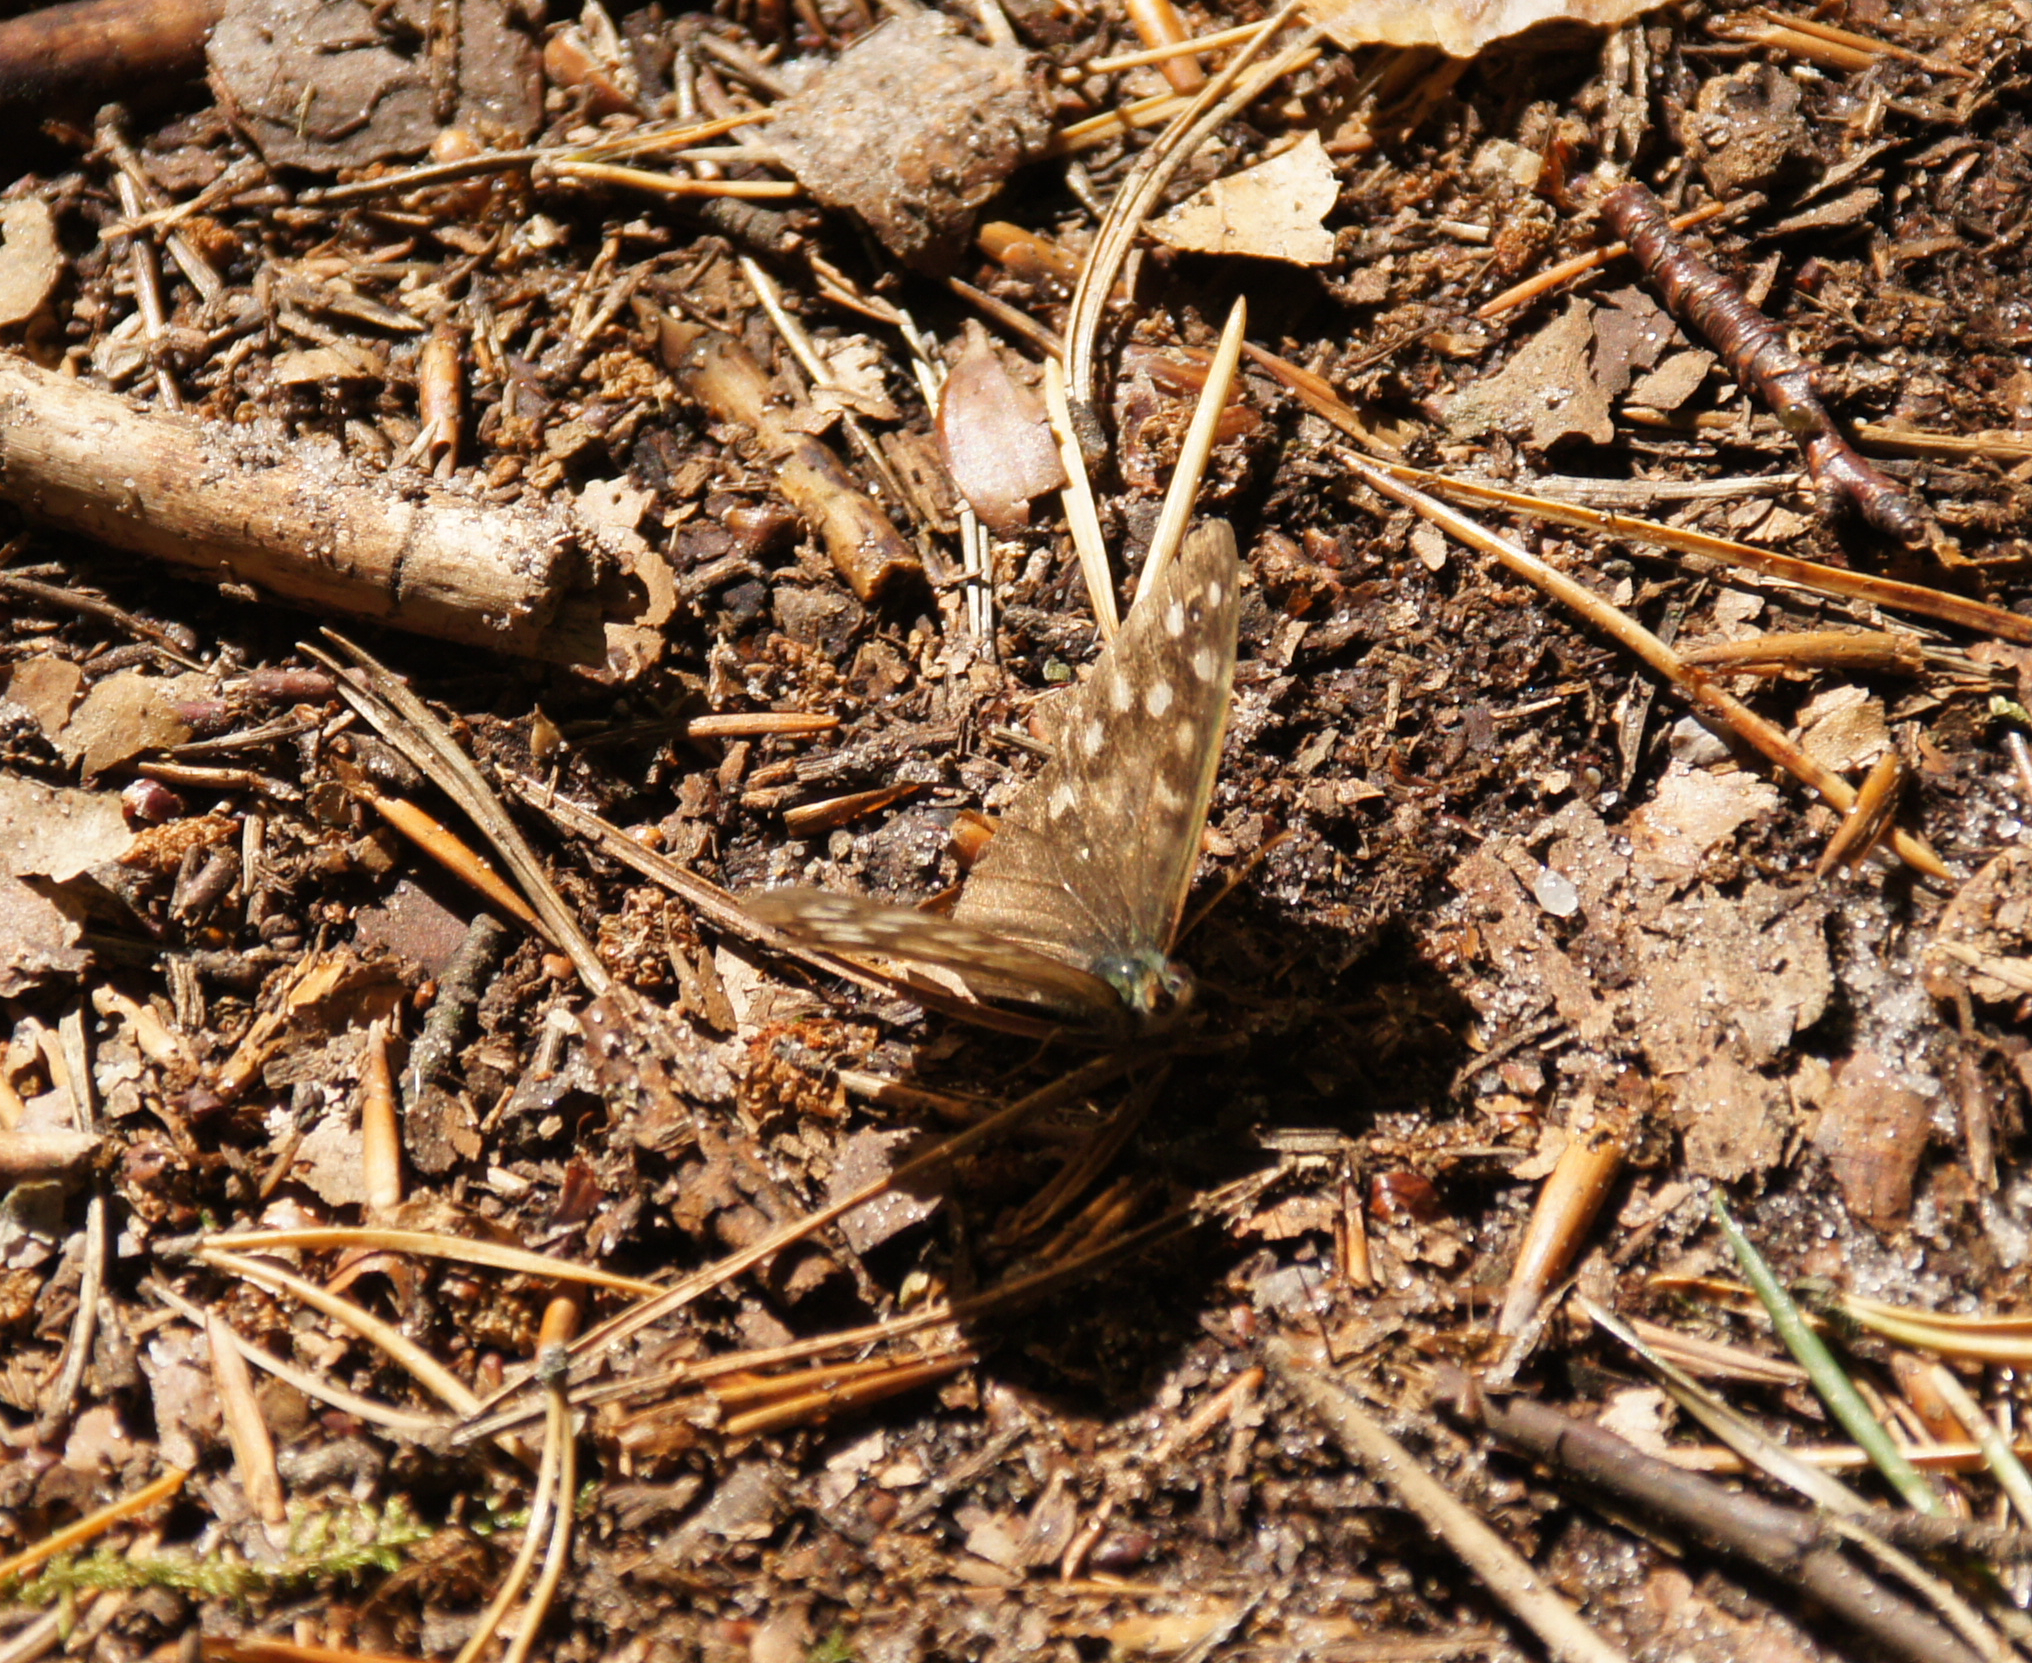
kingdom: Animalia
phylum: Arthropoda
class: Insecta
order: Lepidoptera
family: Nymphalidae
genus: Pararge
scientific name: Pararge aegeria
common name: Speckled wood
